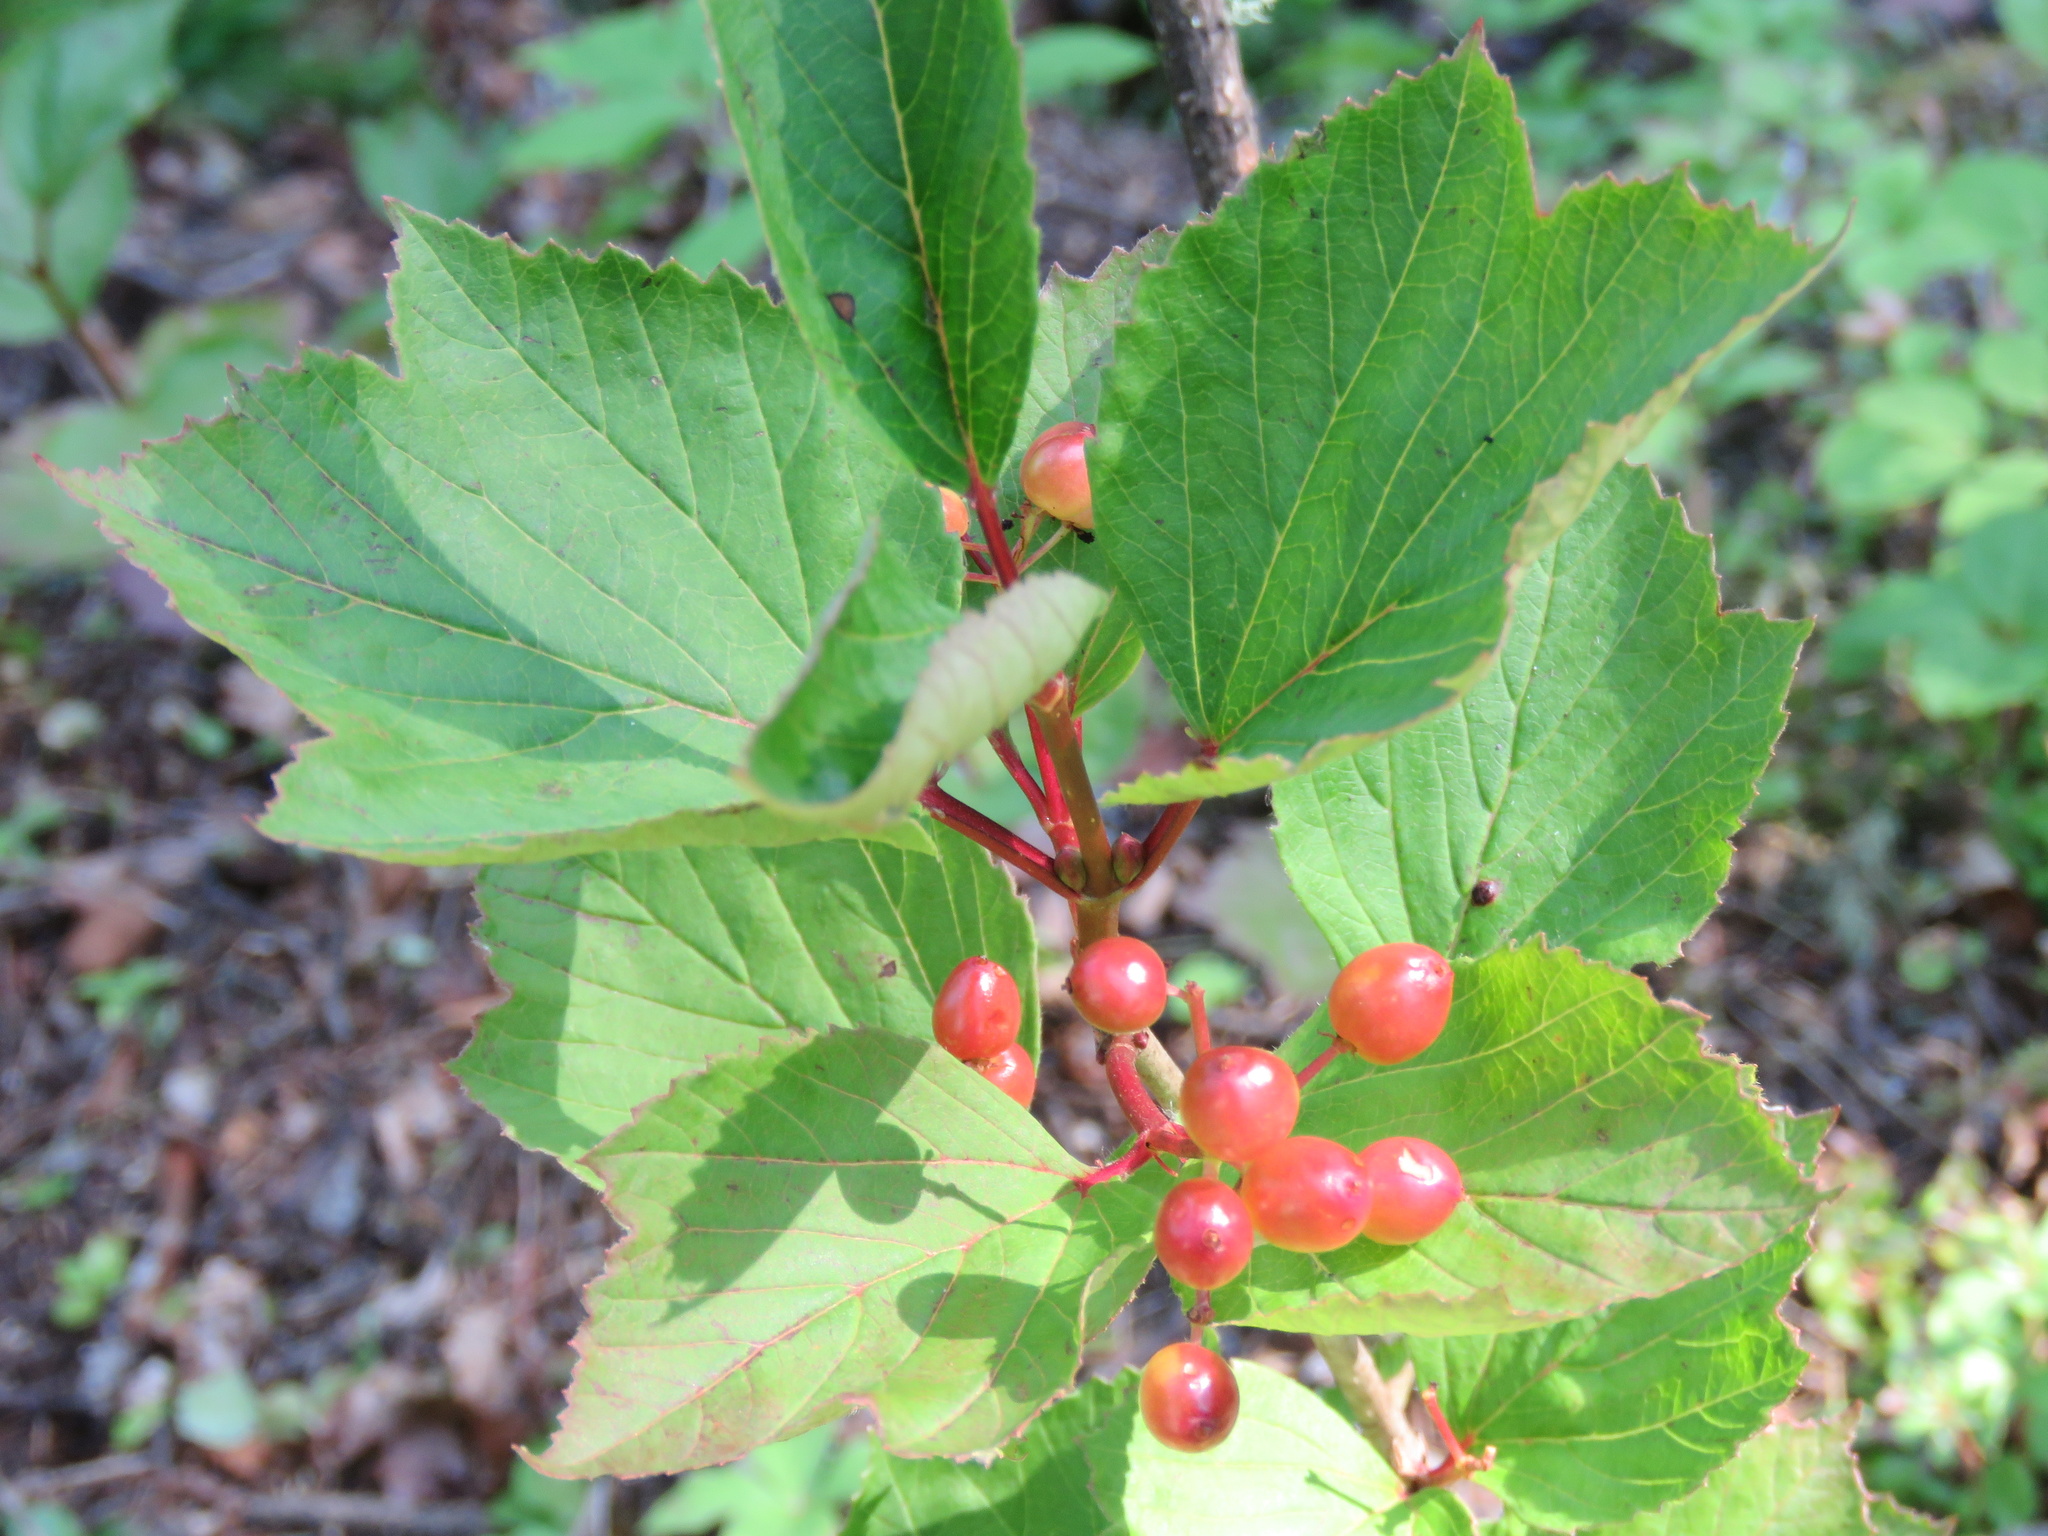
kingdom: Plantae
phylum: Tracheophyta
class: Magnoliopsida
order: Dipsacales
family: Viburnaceae
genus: Viburnum
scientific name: Viburnum edule
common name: Mooseberry
